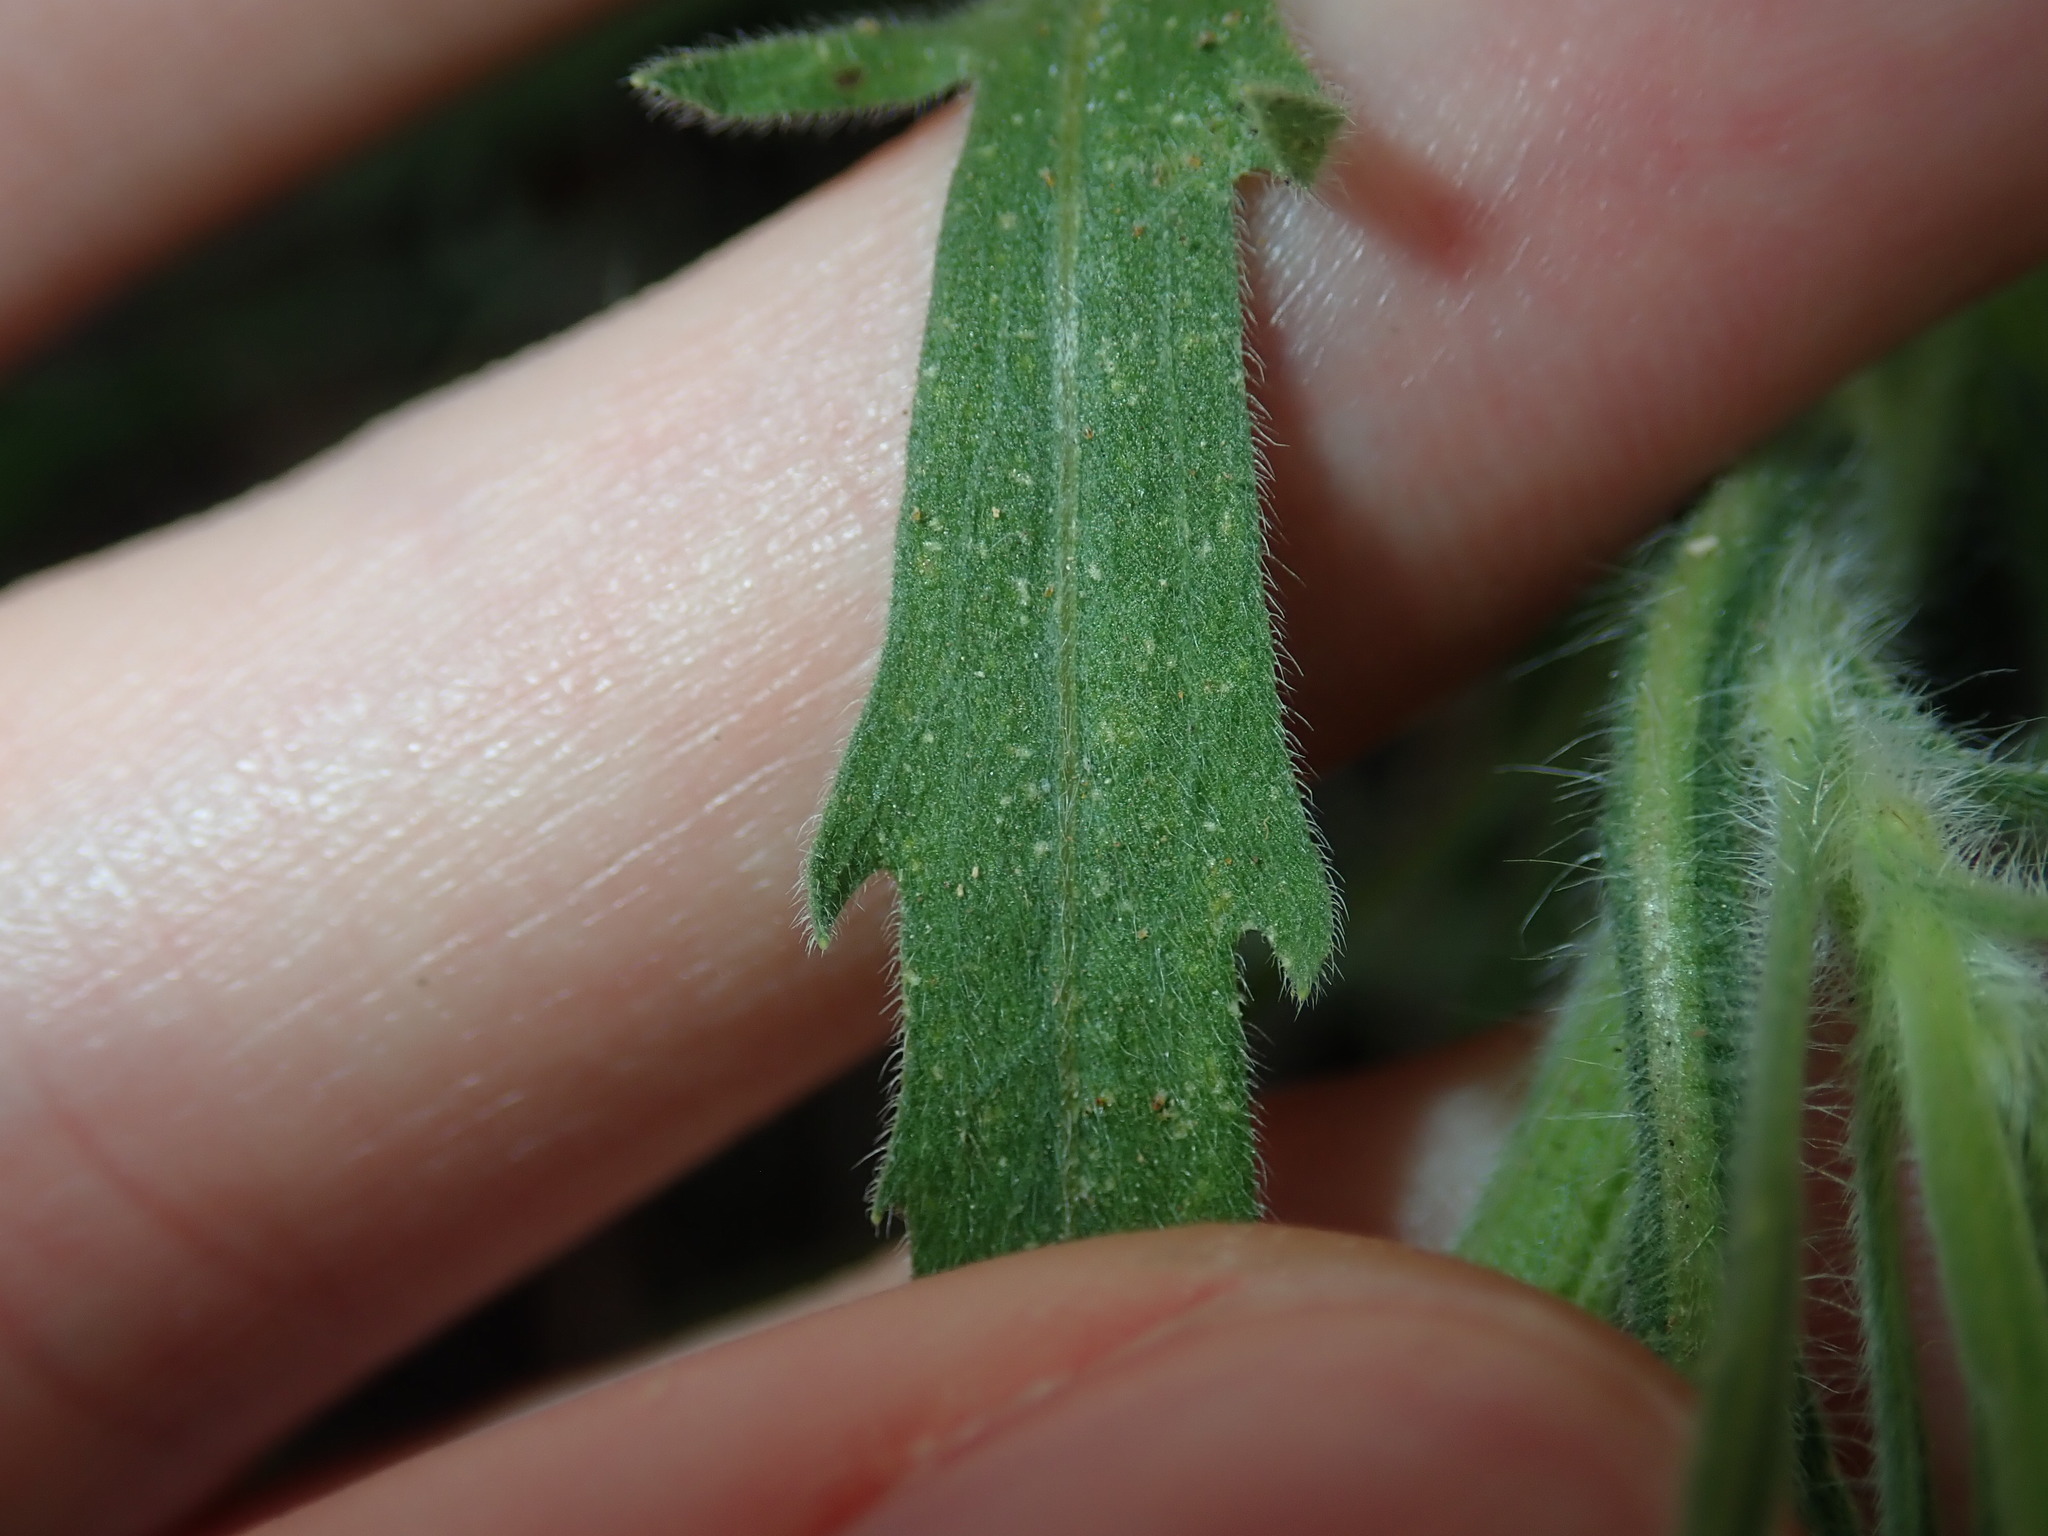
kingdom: Plantae
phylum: Tracheophyta
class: Magnoliopsida
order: Asterales
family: Asteraceae
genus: Erigeron
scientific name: Erigeron bonariensis
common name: Argentine fleabane
